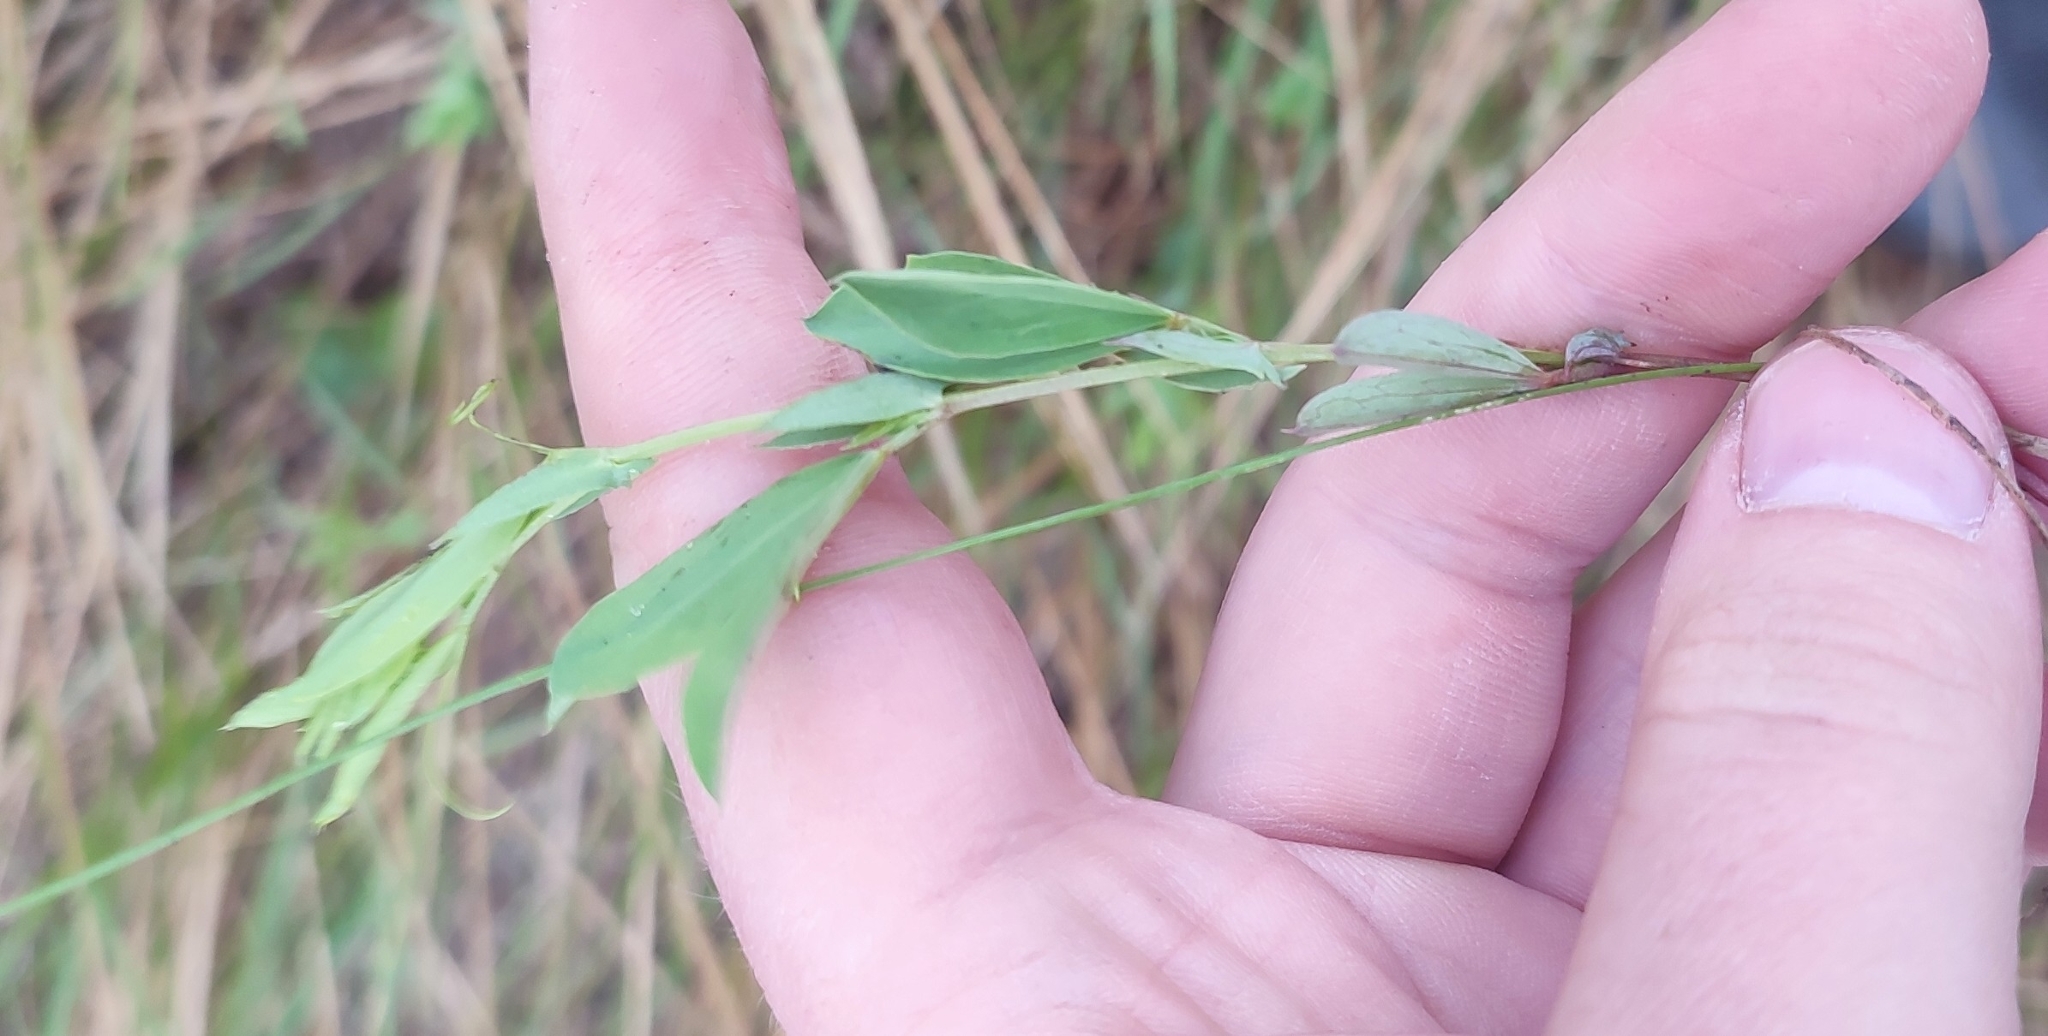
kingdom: Plantae
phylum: Tracheophyta
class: Magnoliopsida
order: Fabales
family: Fabaceae
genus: Lathyrus
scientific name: Lathyrus tuberosus
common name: Tuberous pea
